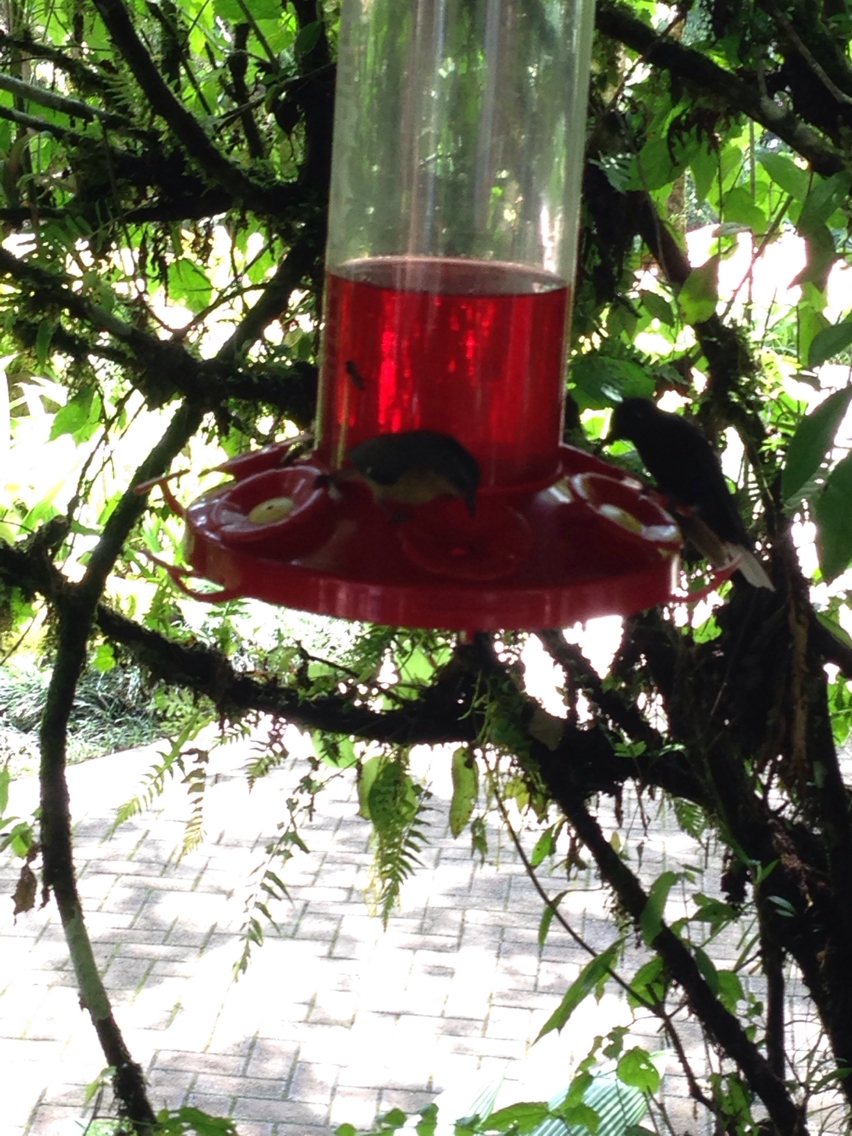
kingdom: Animalia
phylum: Chordata
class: Aves
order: Apodiformes
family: Trochilidae
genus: Campylopterus
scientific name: Campylopterus hemileucurus
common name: Violet sabrewing
